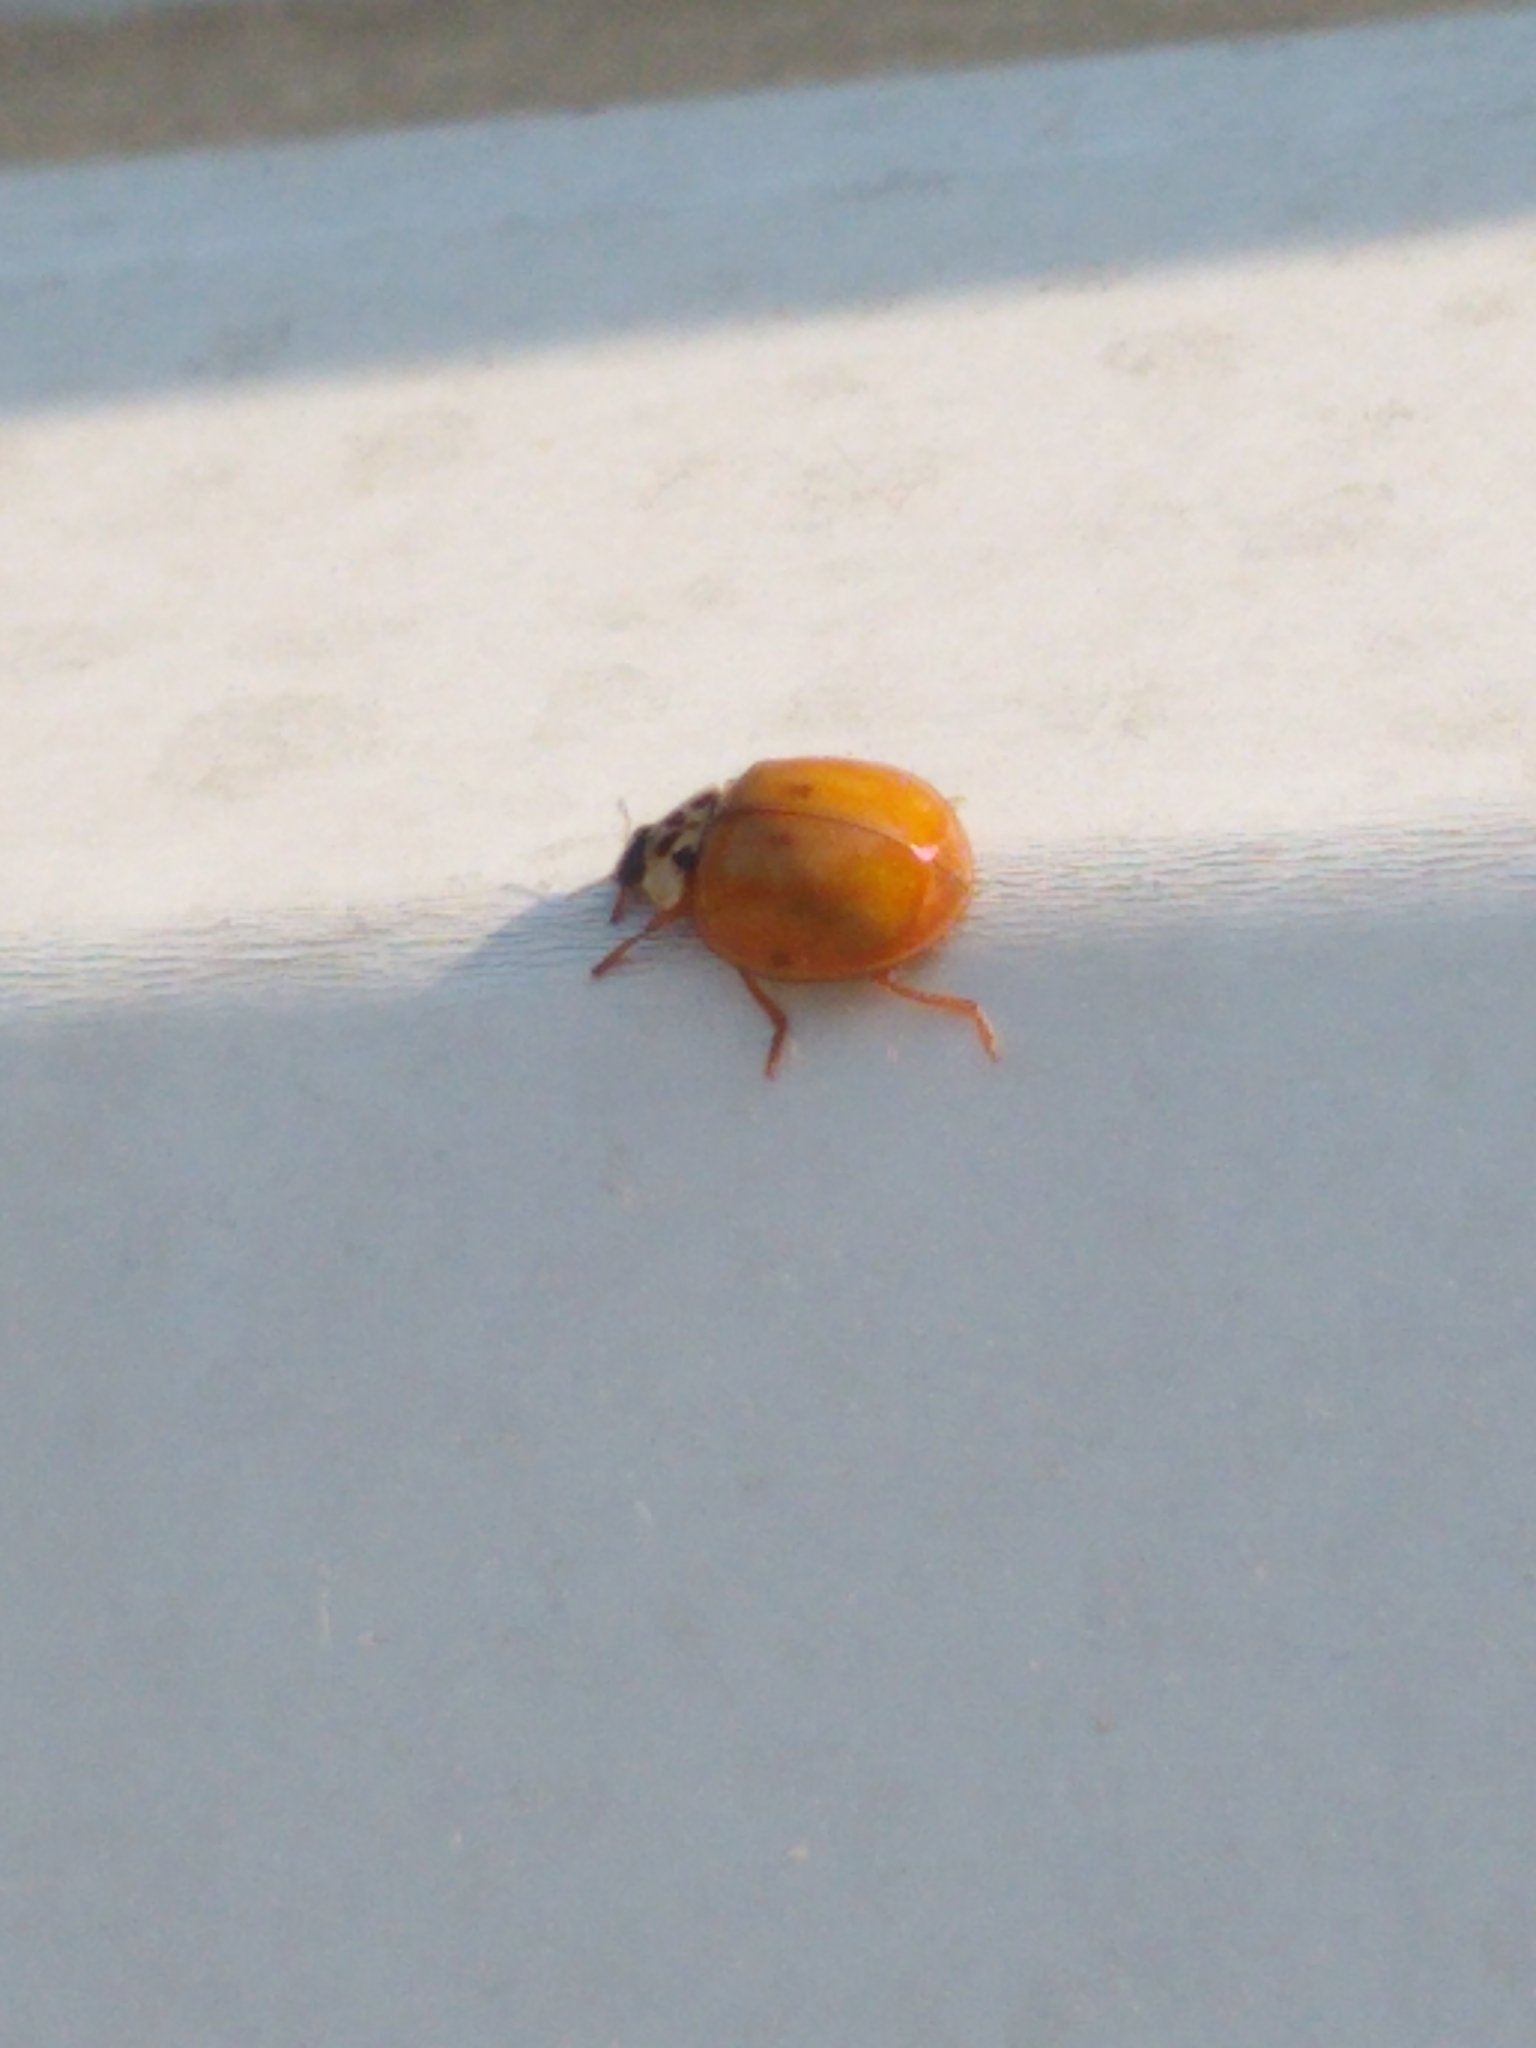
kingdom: Animalia
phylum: Arthropoda
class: Insecta
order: Coleoptera
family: Coccinellidae
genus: Harmonia
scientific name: Harmonia axyridis
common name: Harlequin ladybird
